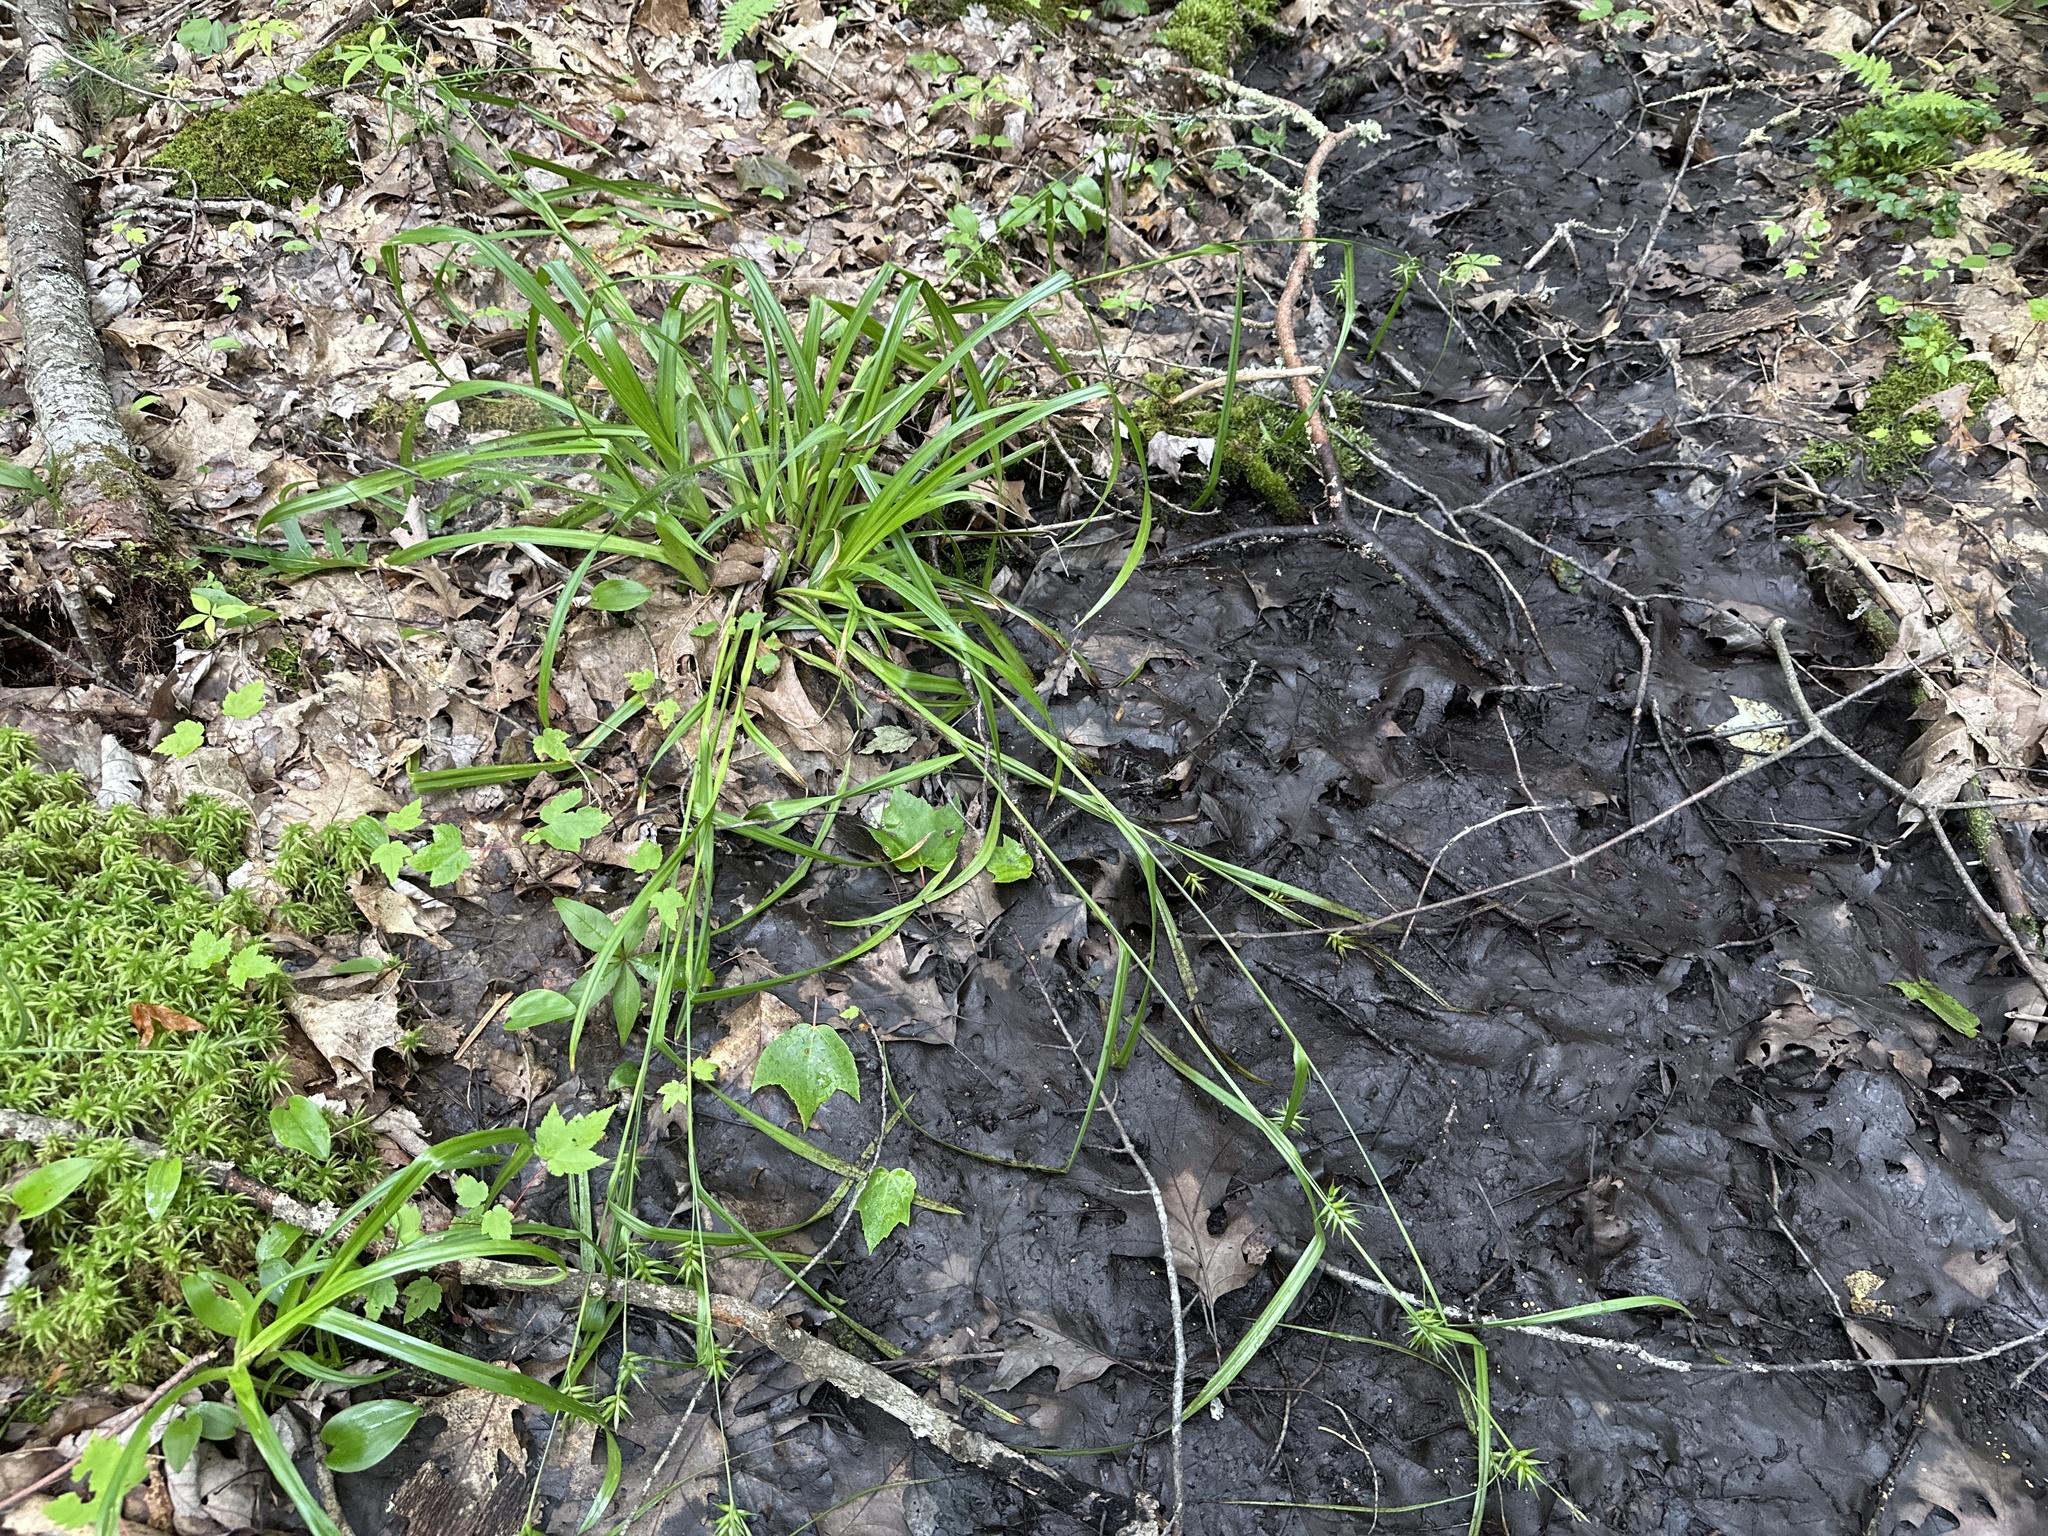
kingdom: Plantae
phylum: Tracheophyta
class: Liliopsida
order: Poales
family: Cyperaceae
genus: Carex
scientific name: Carex folliculata
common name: Northern long sedge
